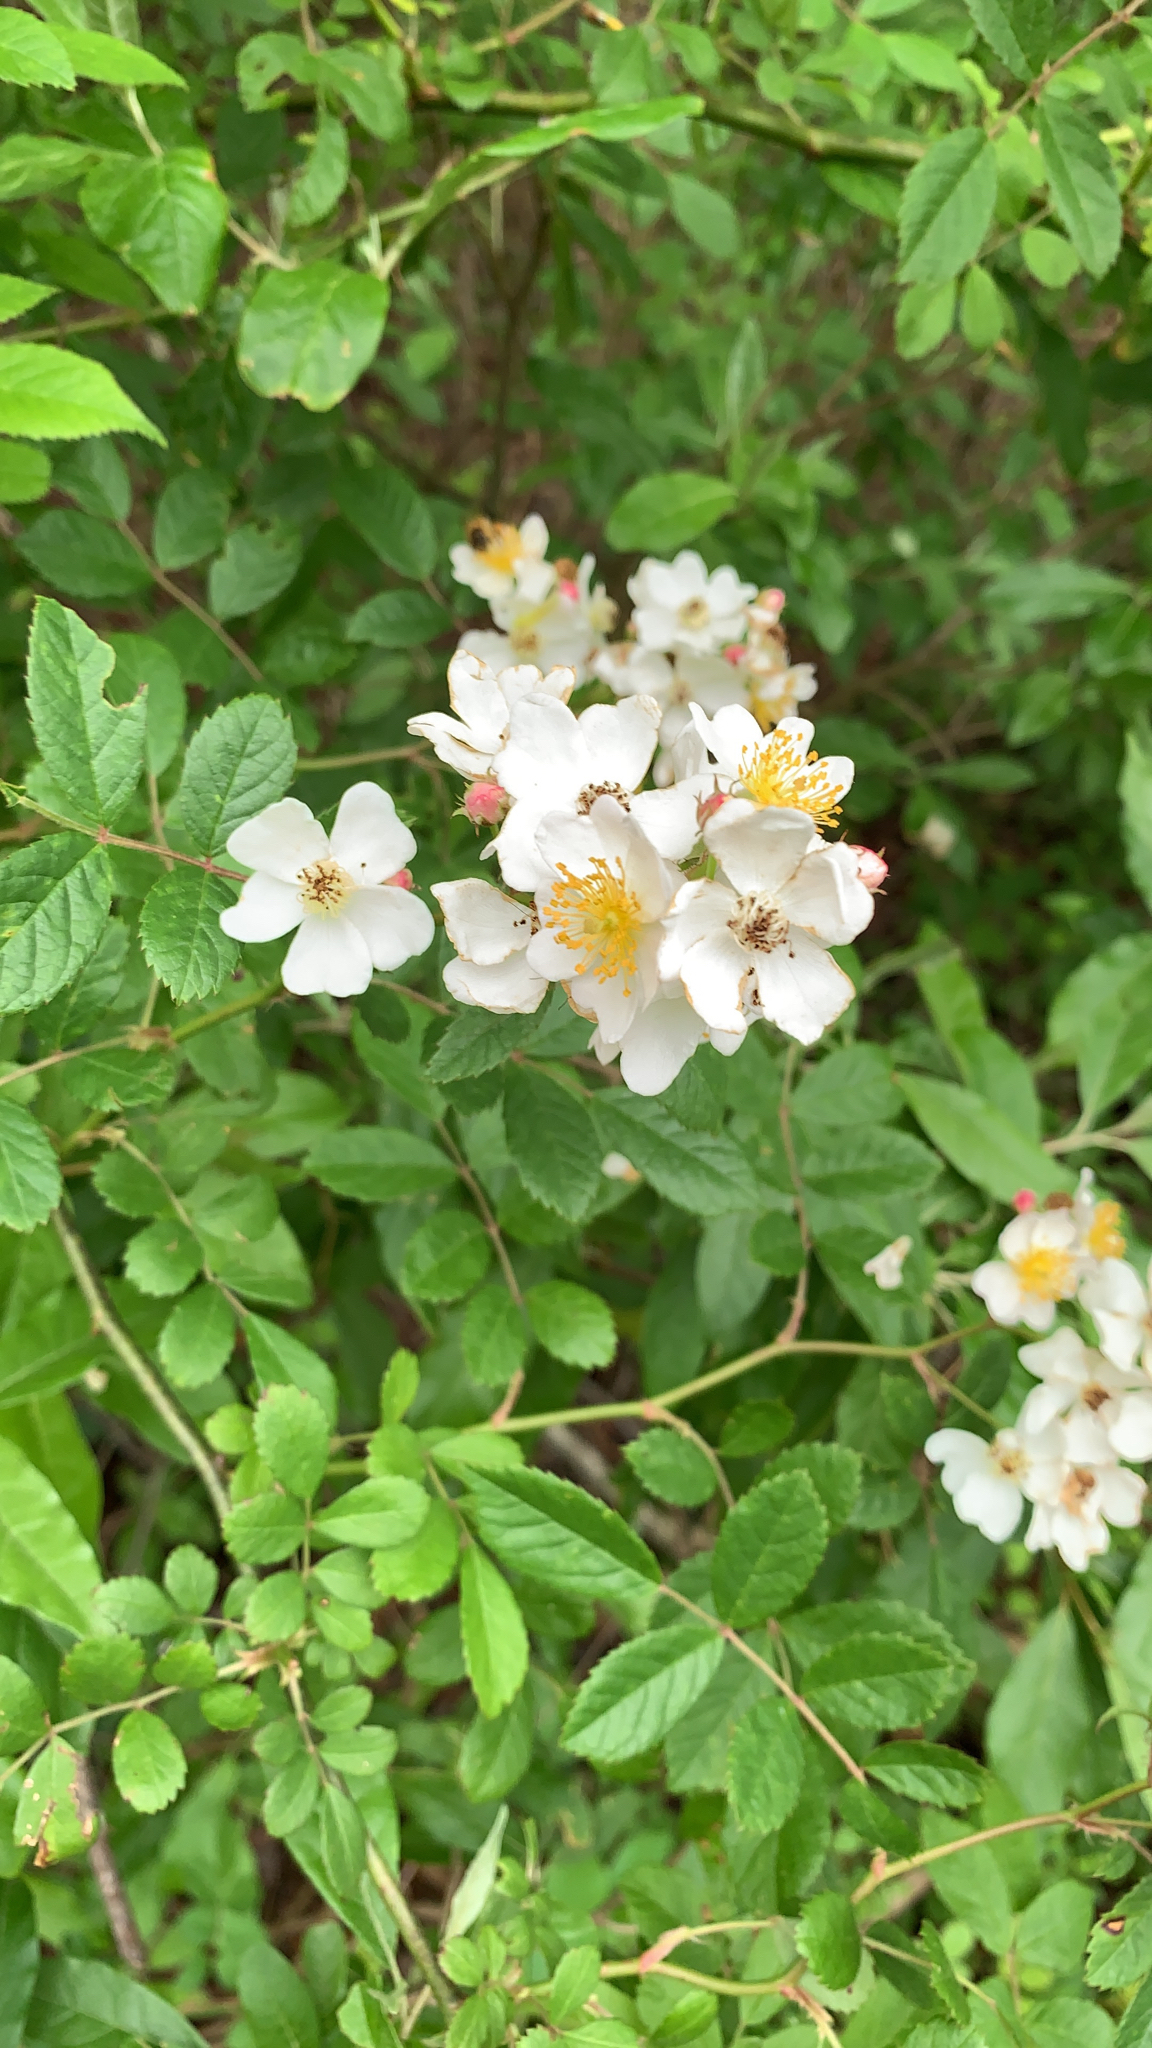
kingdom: Plantae
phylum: Tracheophyta
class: Magnoliopsida
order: Rosales
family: Rosaceae
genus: Rosa
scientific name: Rosa multiflora
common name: Multiflora rose
